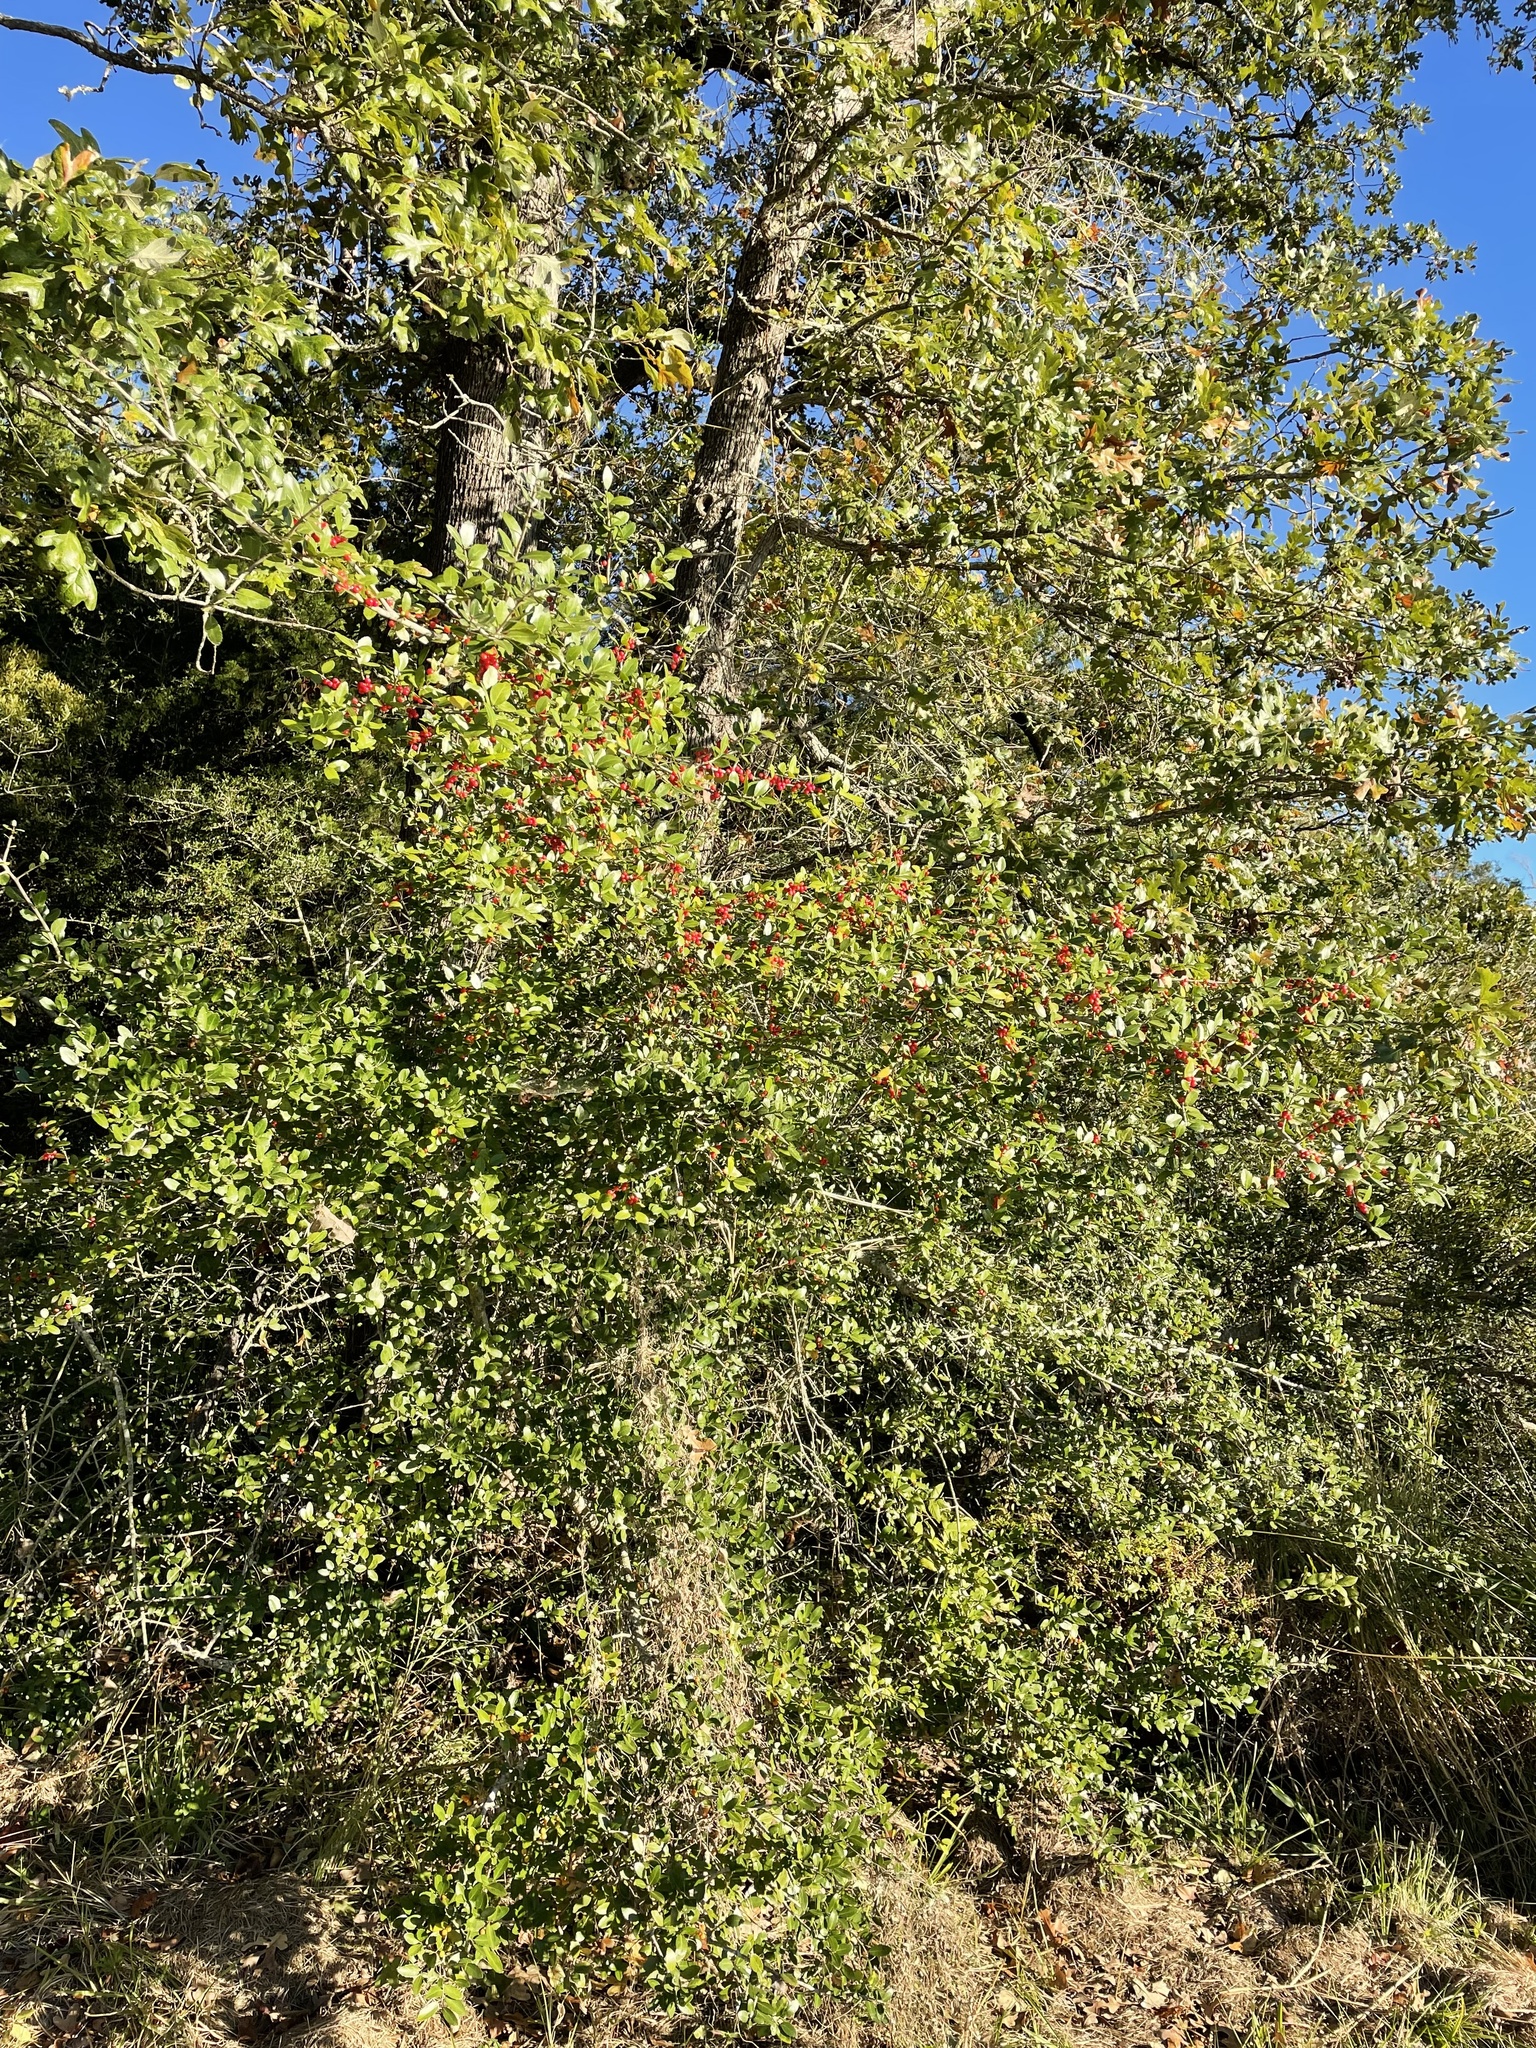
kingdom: Plantae
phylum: Tracheophyta
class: Magnoliopsida
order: Aquifoliales
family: Aquifoliaceae
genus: Ilex
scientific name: Ilex vomitoria
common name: Yaupon holly
